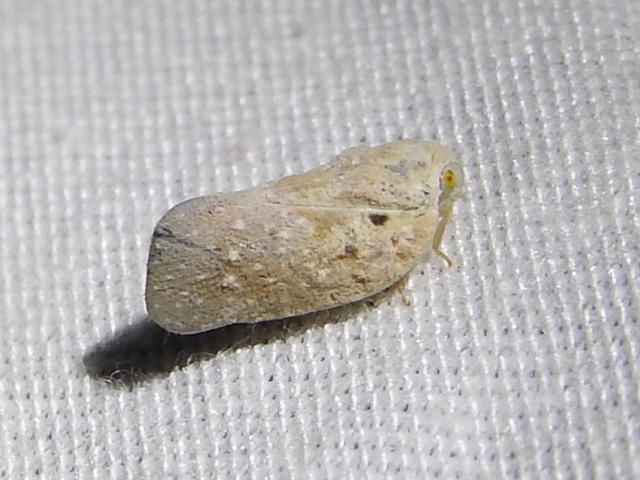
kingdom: Animalia
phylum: Arthropoda
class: Insecta
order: Hemiptera
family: Flatidae
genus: Metcalfa
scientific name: Metcalfa pruinosa
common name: Citrus flatid planthopper
